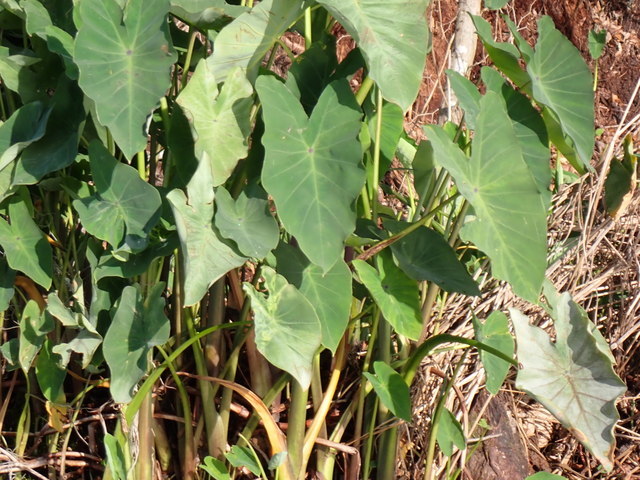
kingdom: Plantae
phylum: Tracheophyta
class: Liliopsida
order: Alismatales
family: Araceae
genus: Colocasia
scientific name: Colocasia esculenta
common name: Taro
